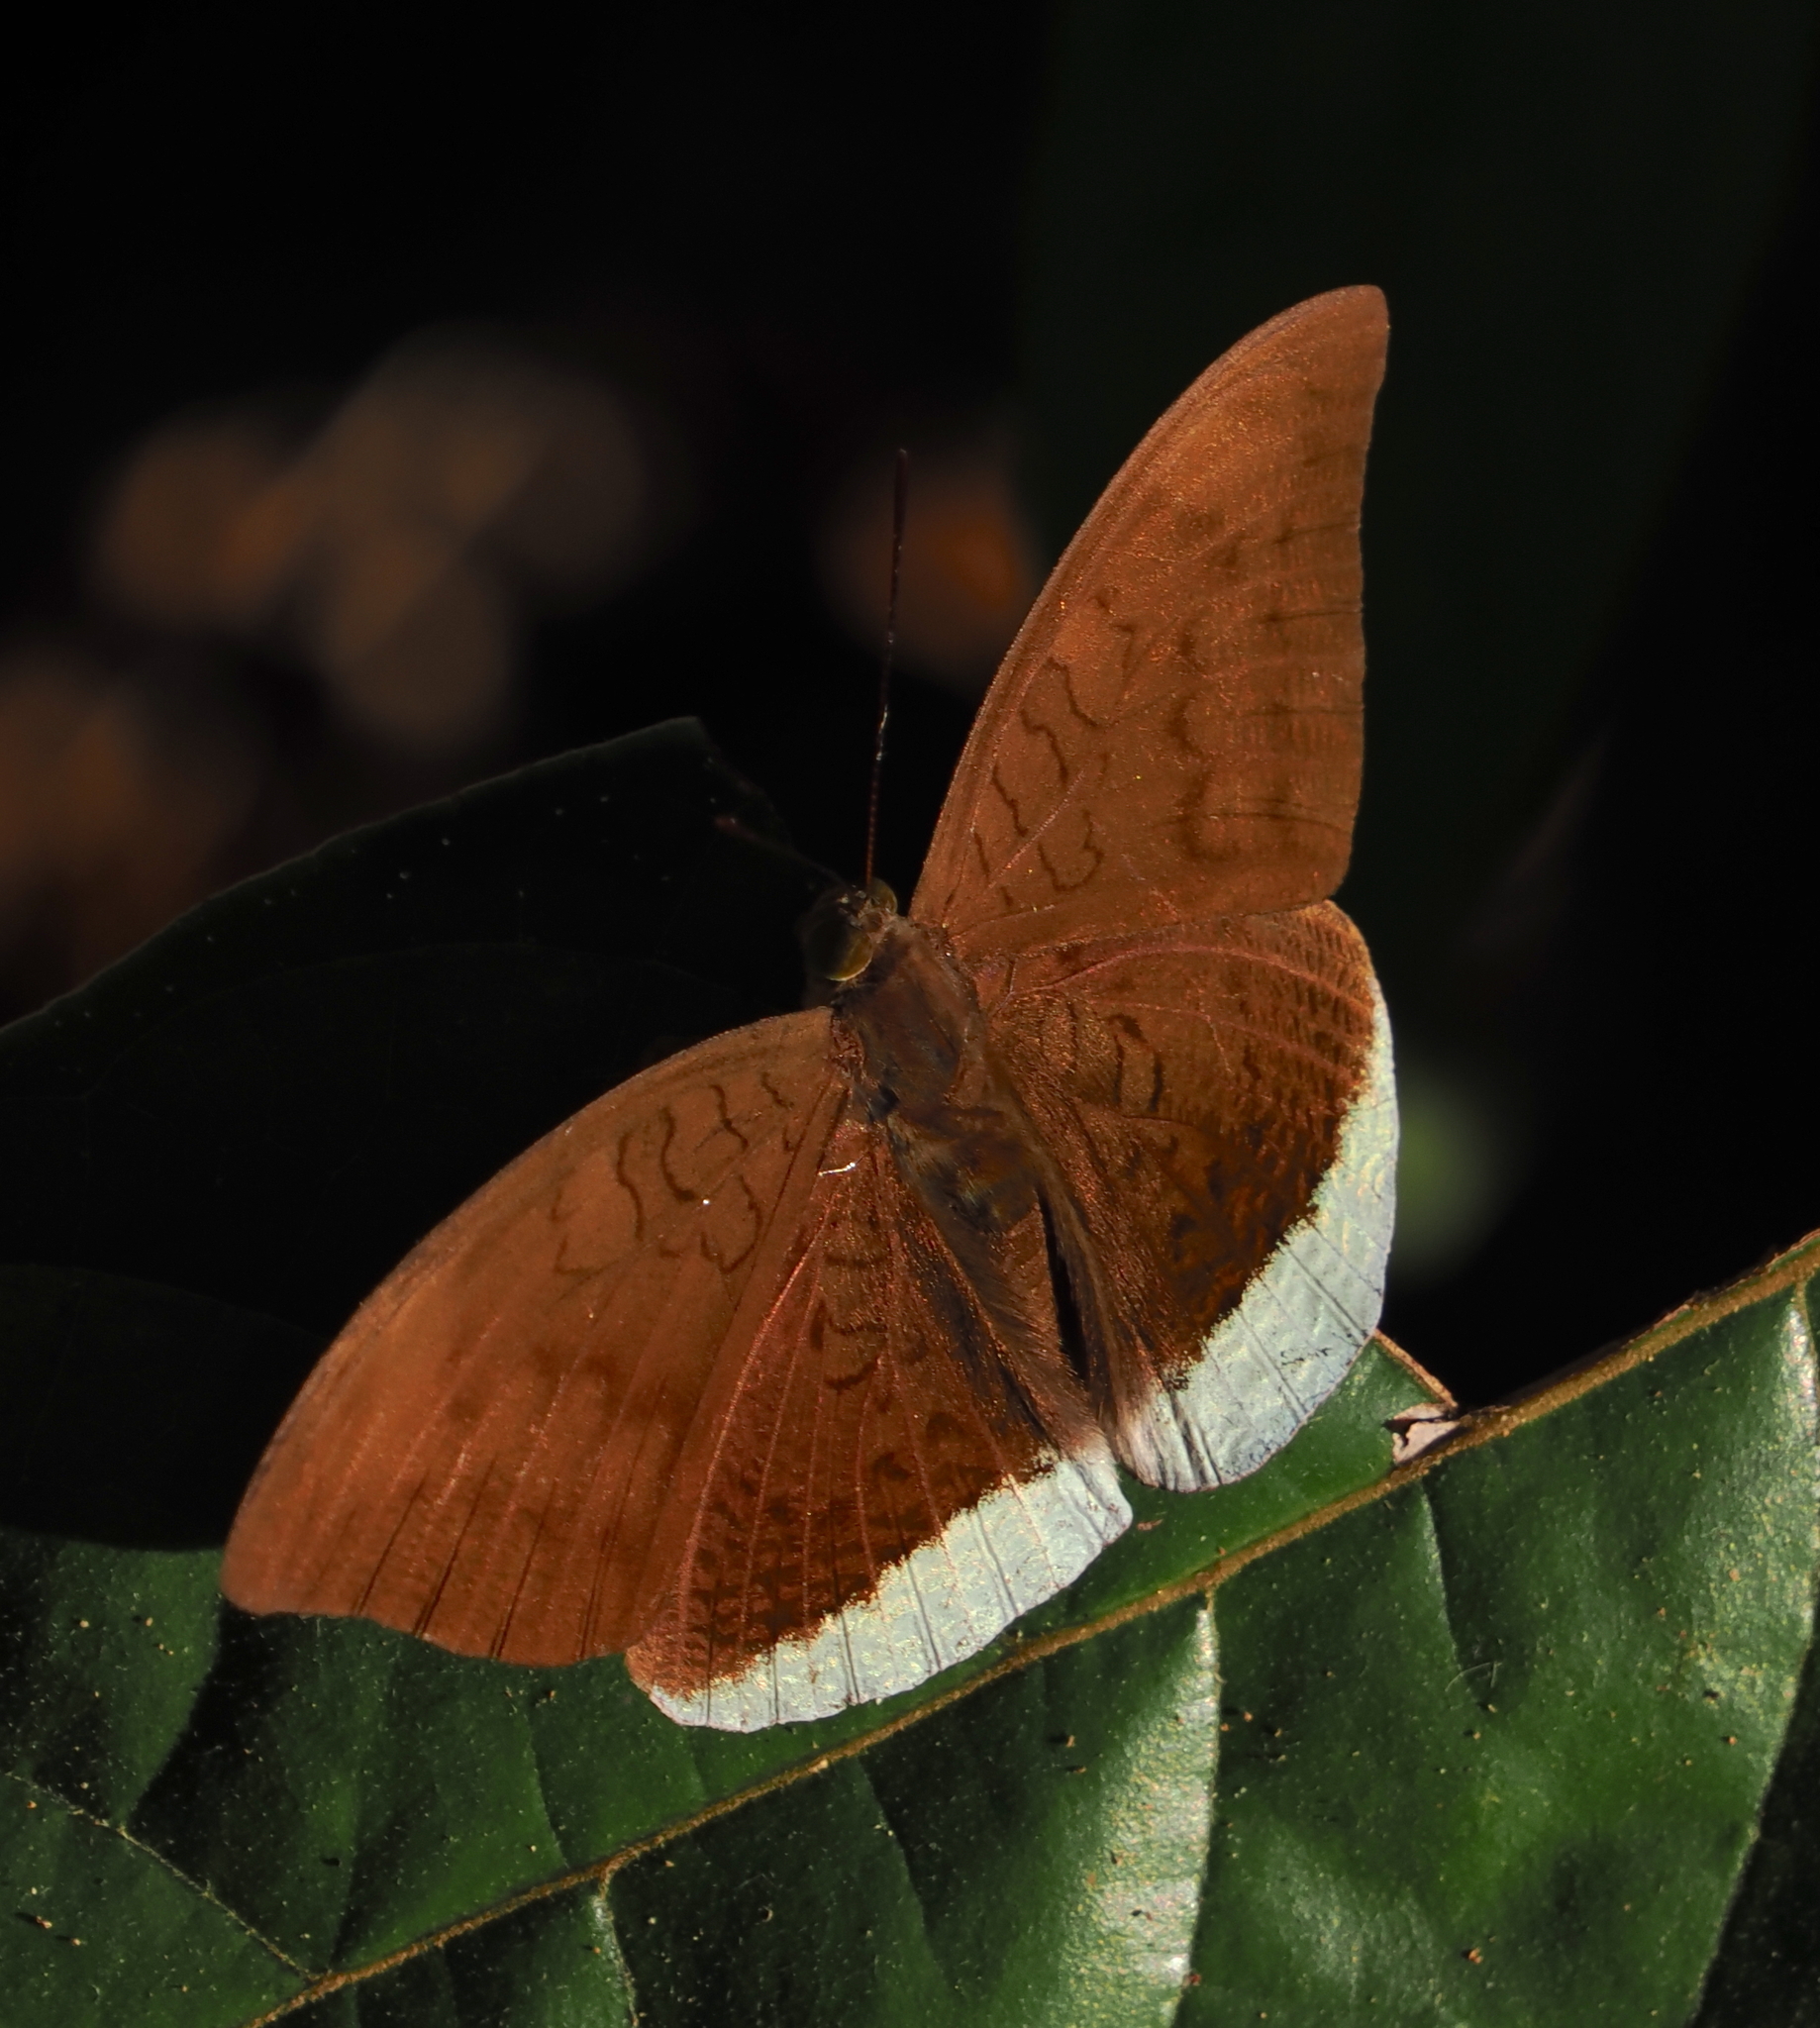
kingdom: Animalia
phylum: Arthropoda
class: Insecta
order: Lepidoptera
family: Nymphalidae
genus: Tanaecia
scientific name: Tanaecia julii
